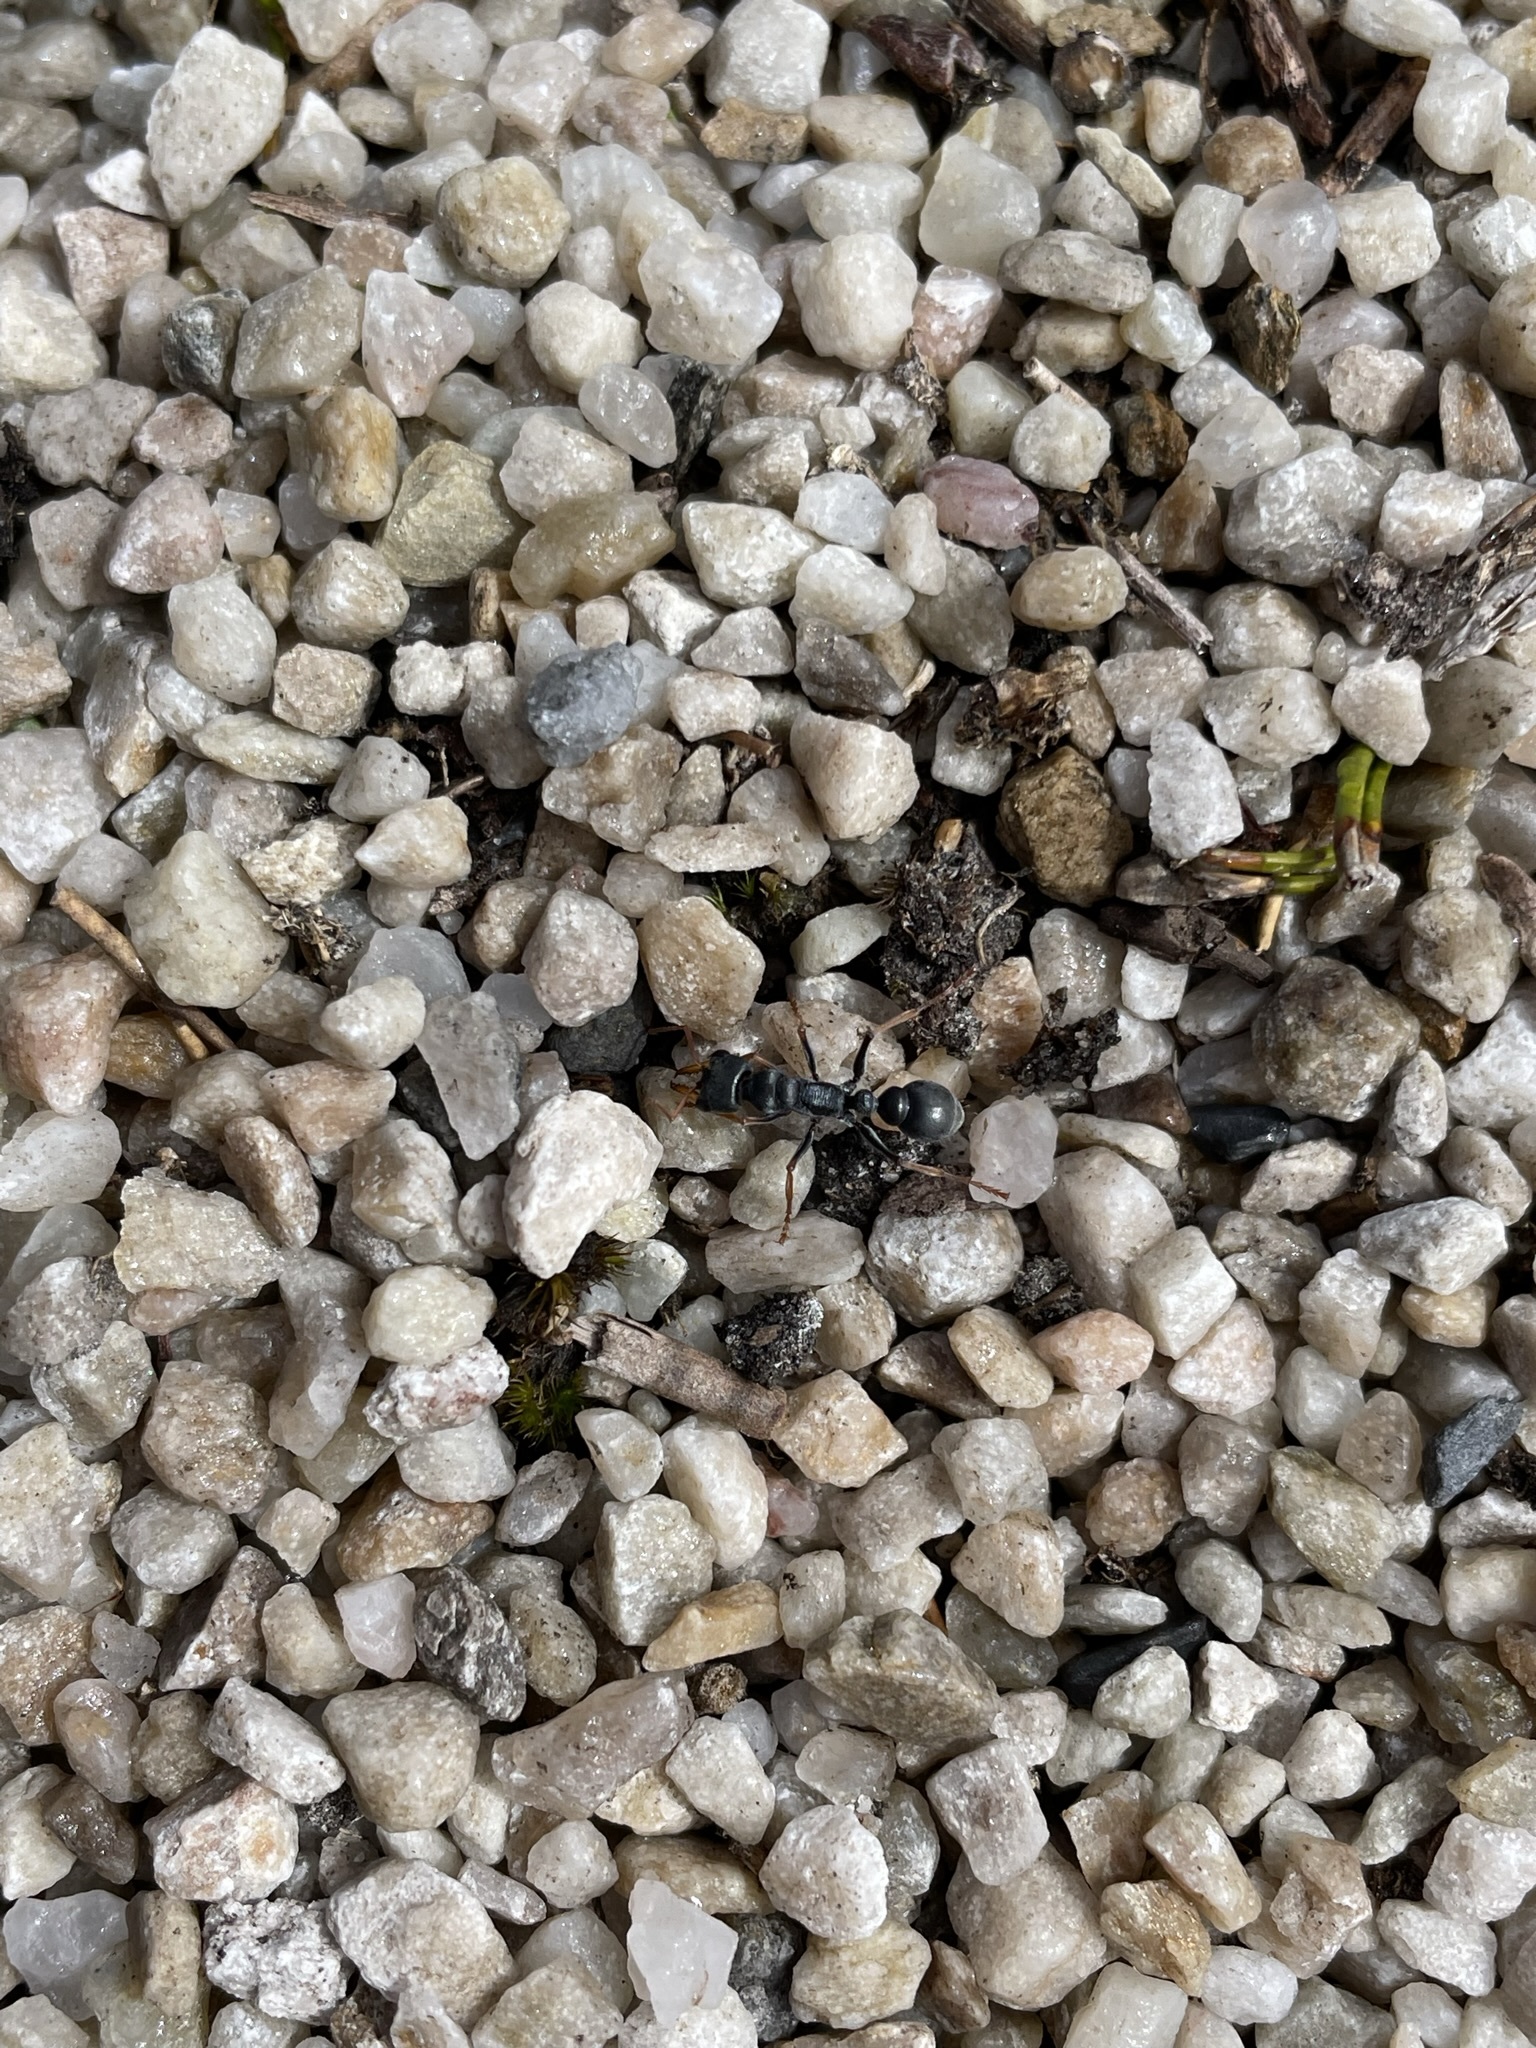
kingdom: Animalia
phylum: Arthropoda
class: Insecta
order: Hymenoptera
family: Formicidae
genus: Myrmecia
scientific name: Myrmecia pilosula
